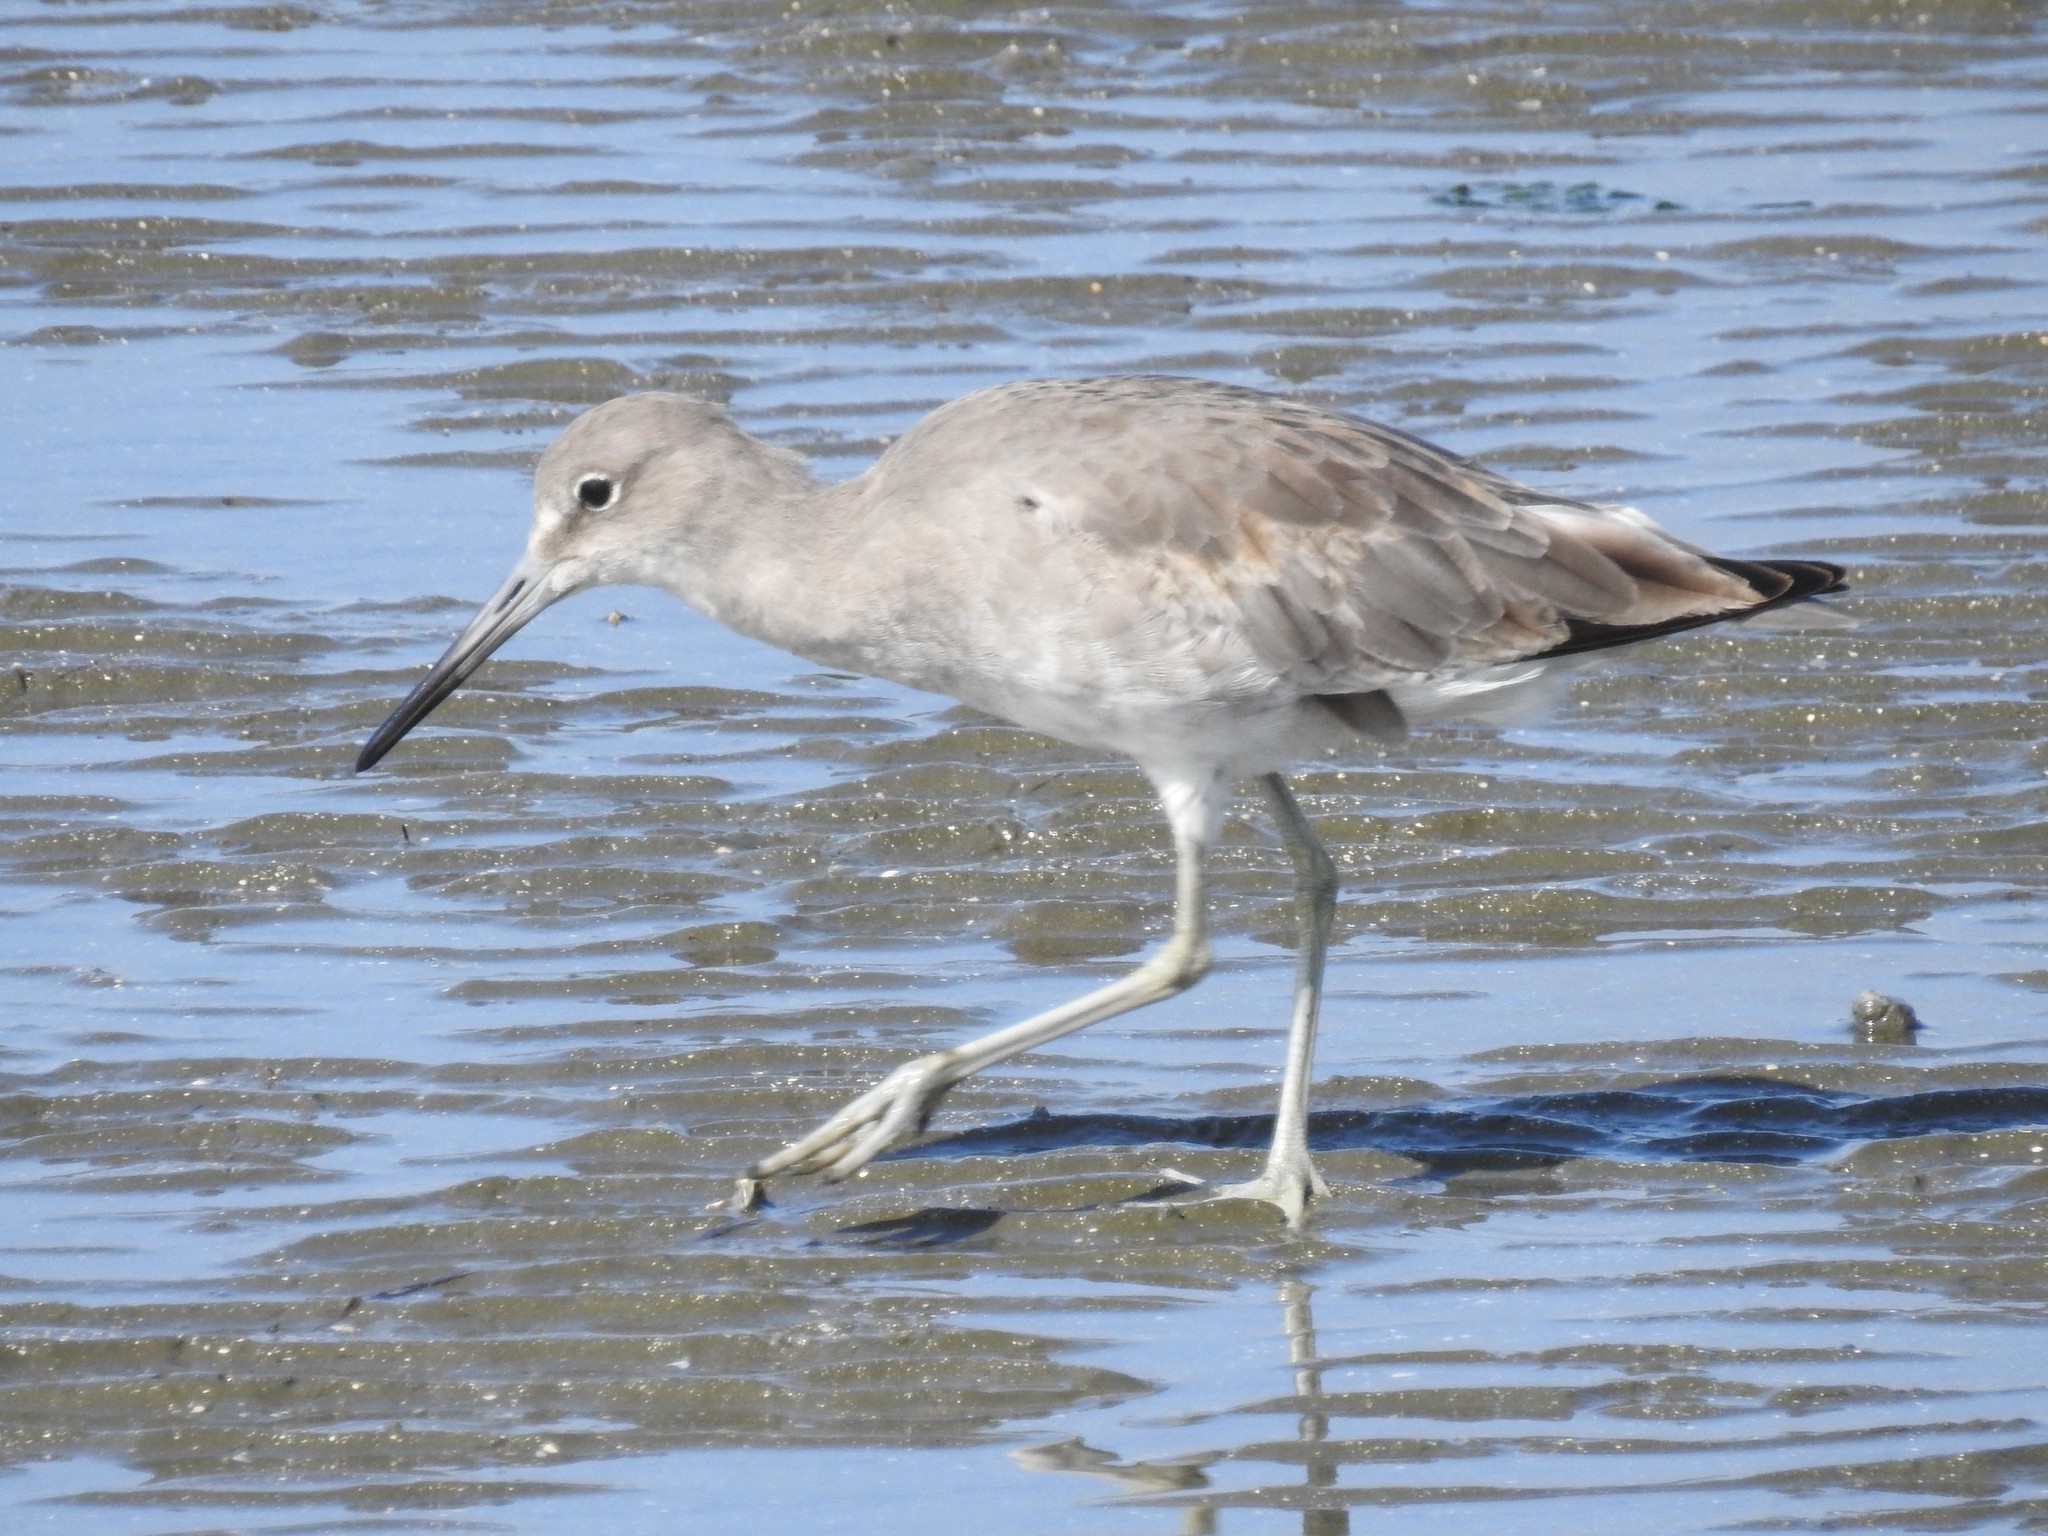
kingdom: Animalia
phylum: Chordata
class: Aves
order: Charadriiformes
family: Scolopacidae
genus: Tringa
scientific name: Tringa semipalmata
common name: Willet
